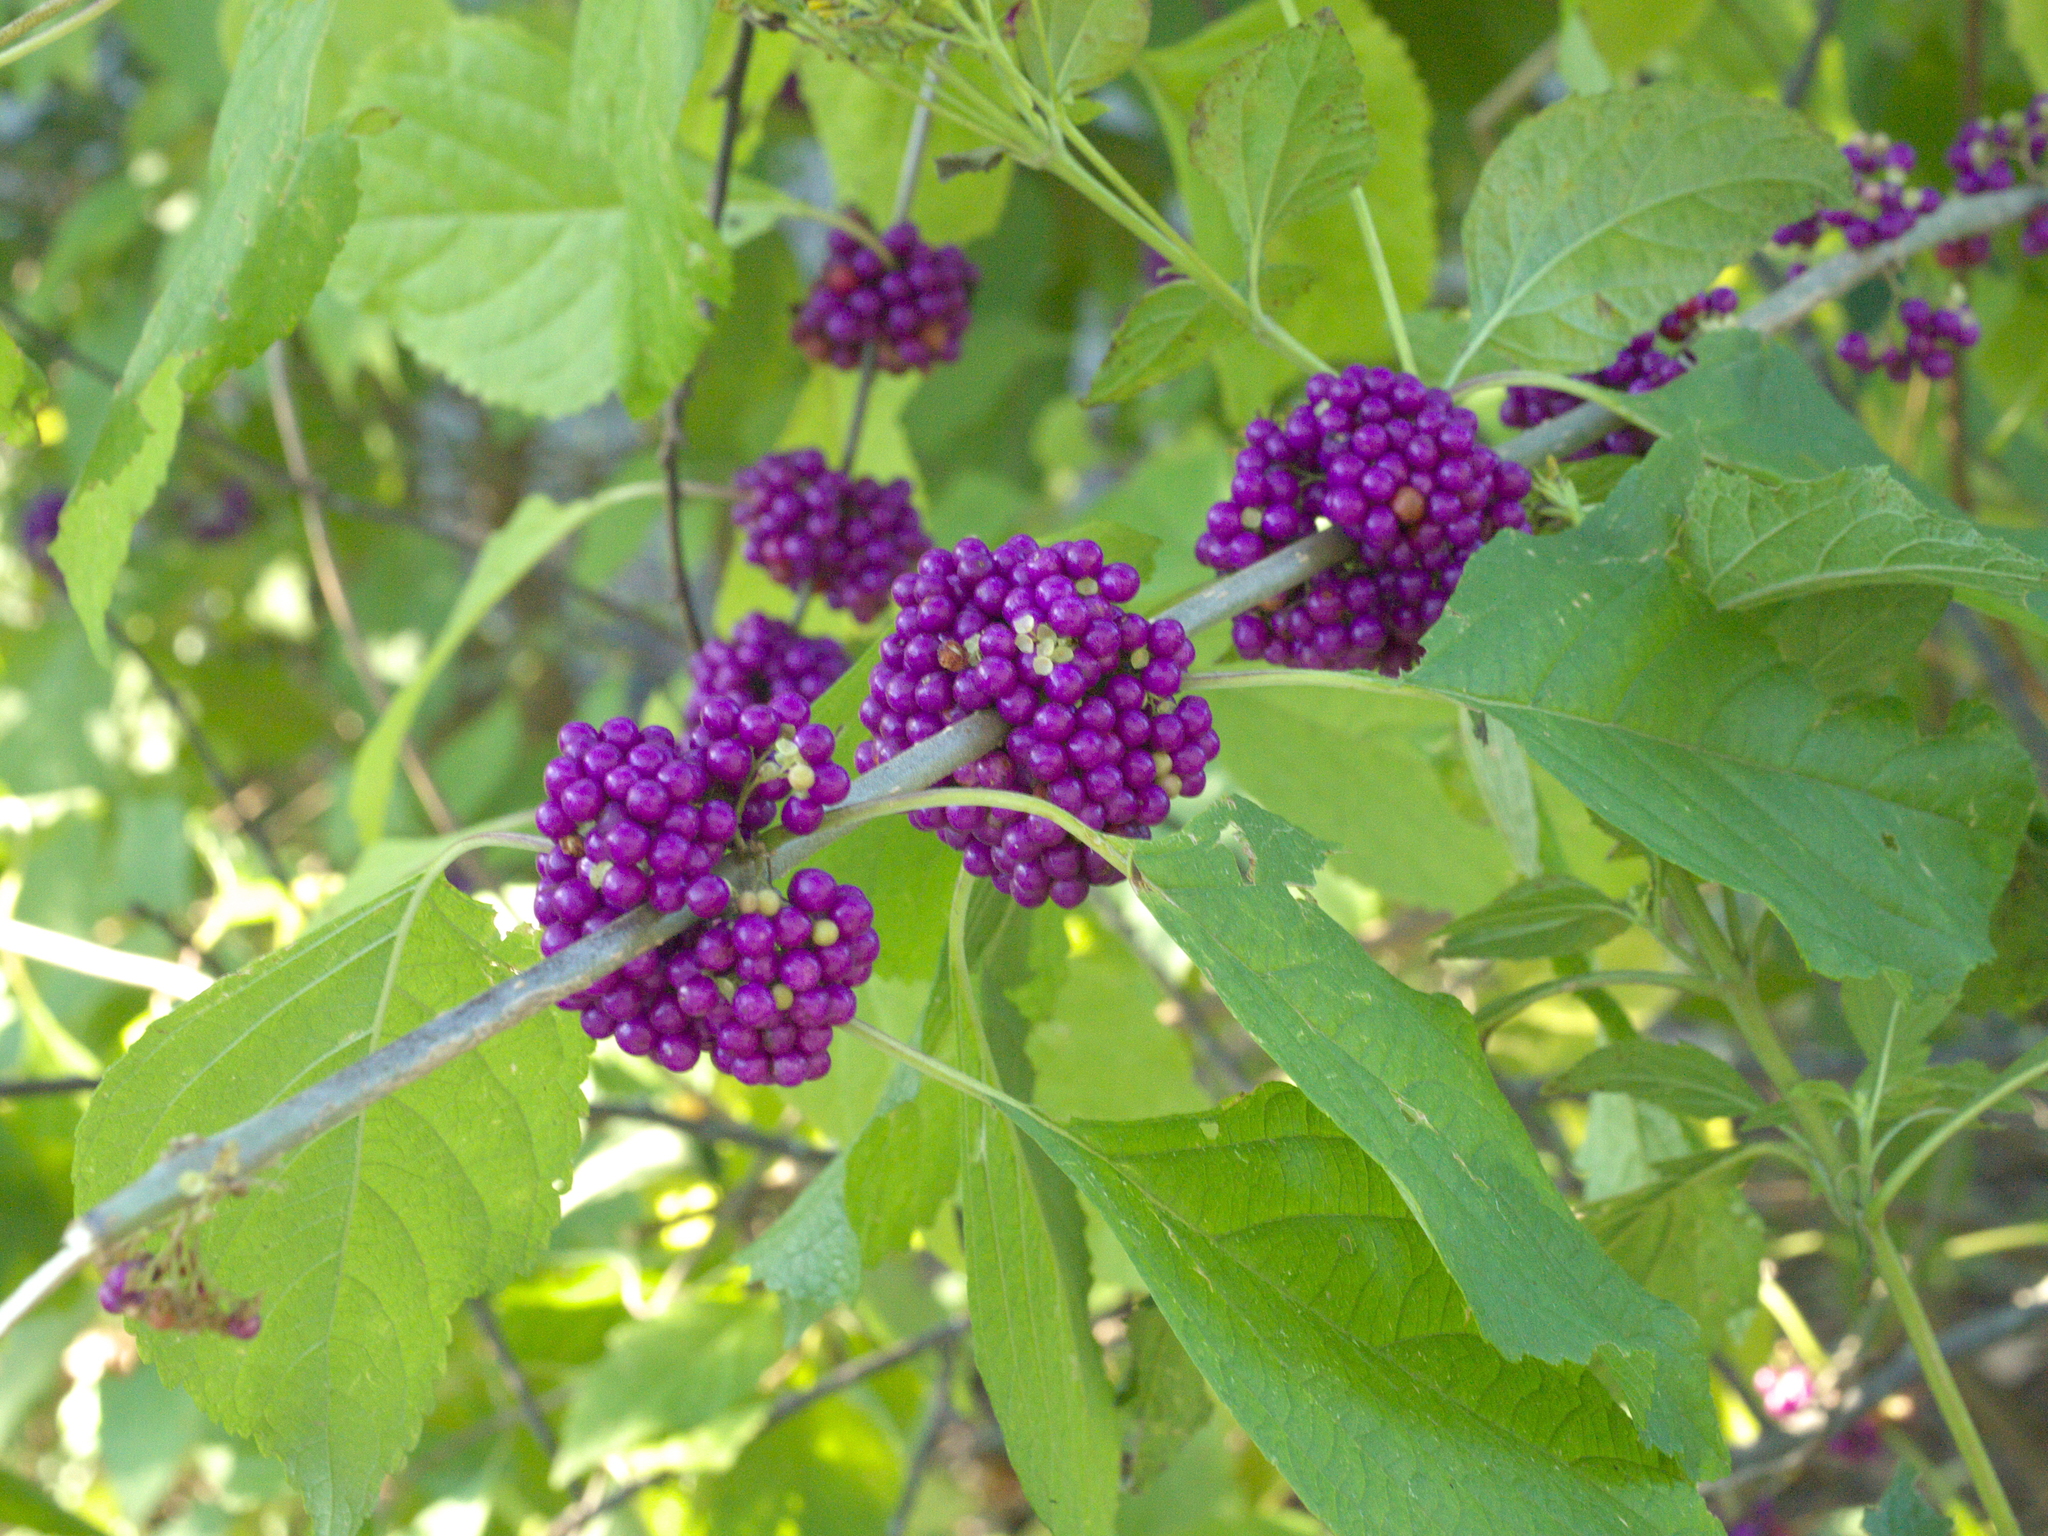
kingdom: Plantae
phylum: Tracheophyta
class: Magnoliopsida
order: Lamiales
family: Lamiaceae
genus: Callicarpa
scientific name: Callicarpa americana
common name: American beautyberry
